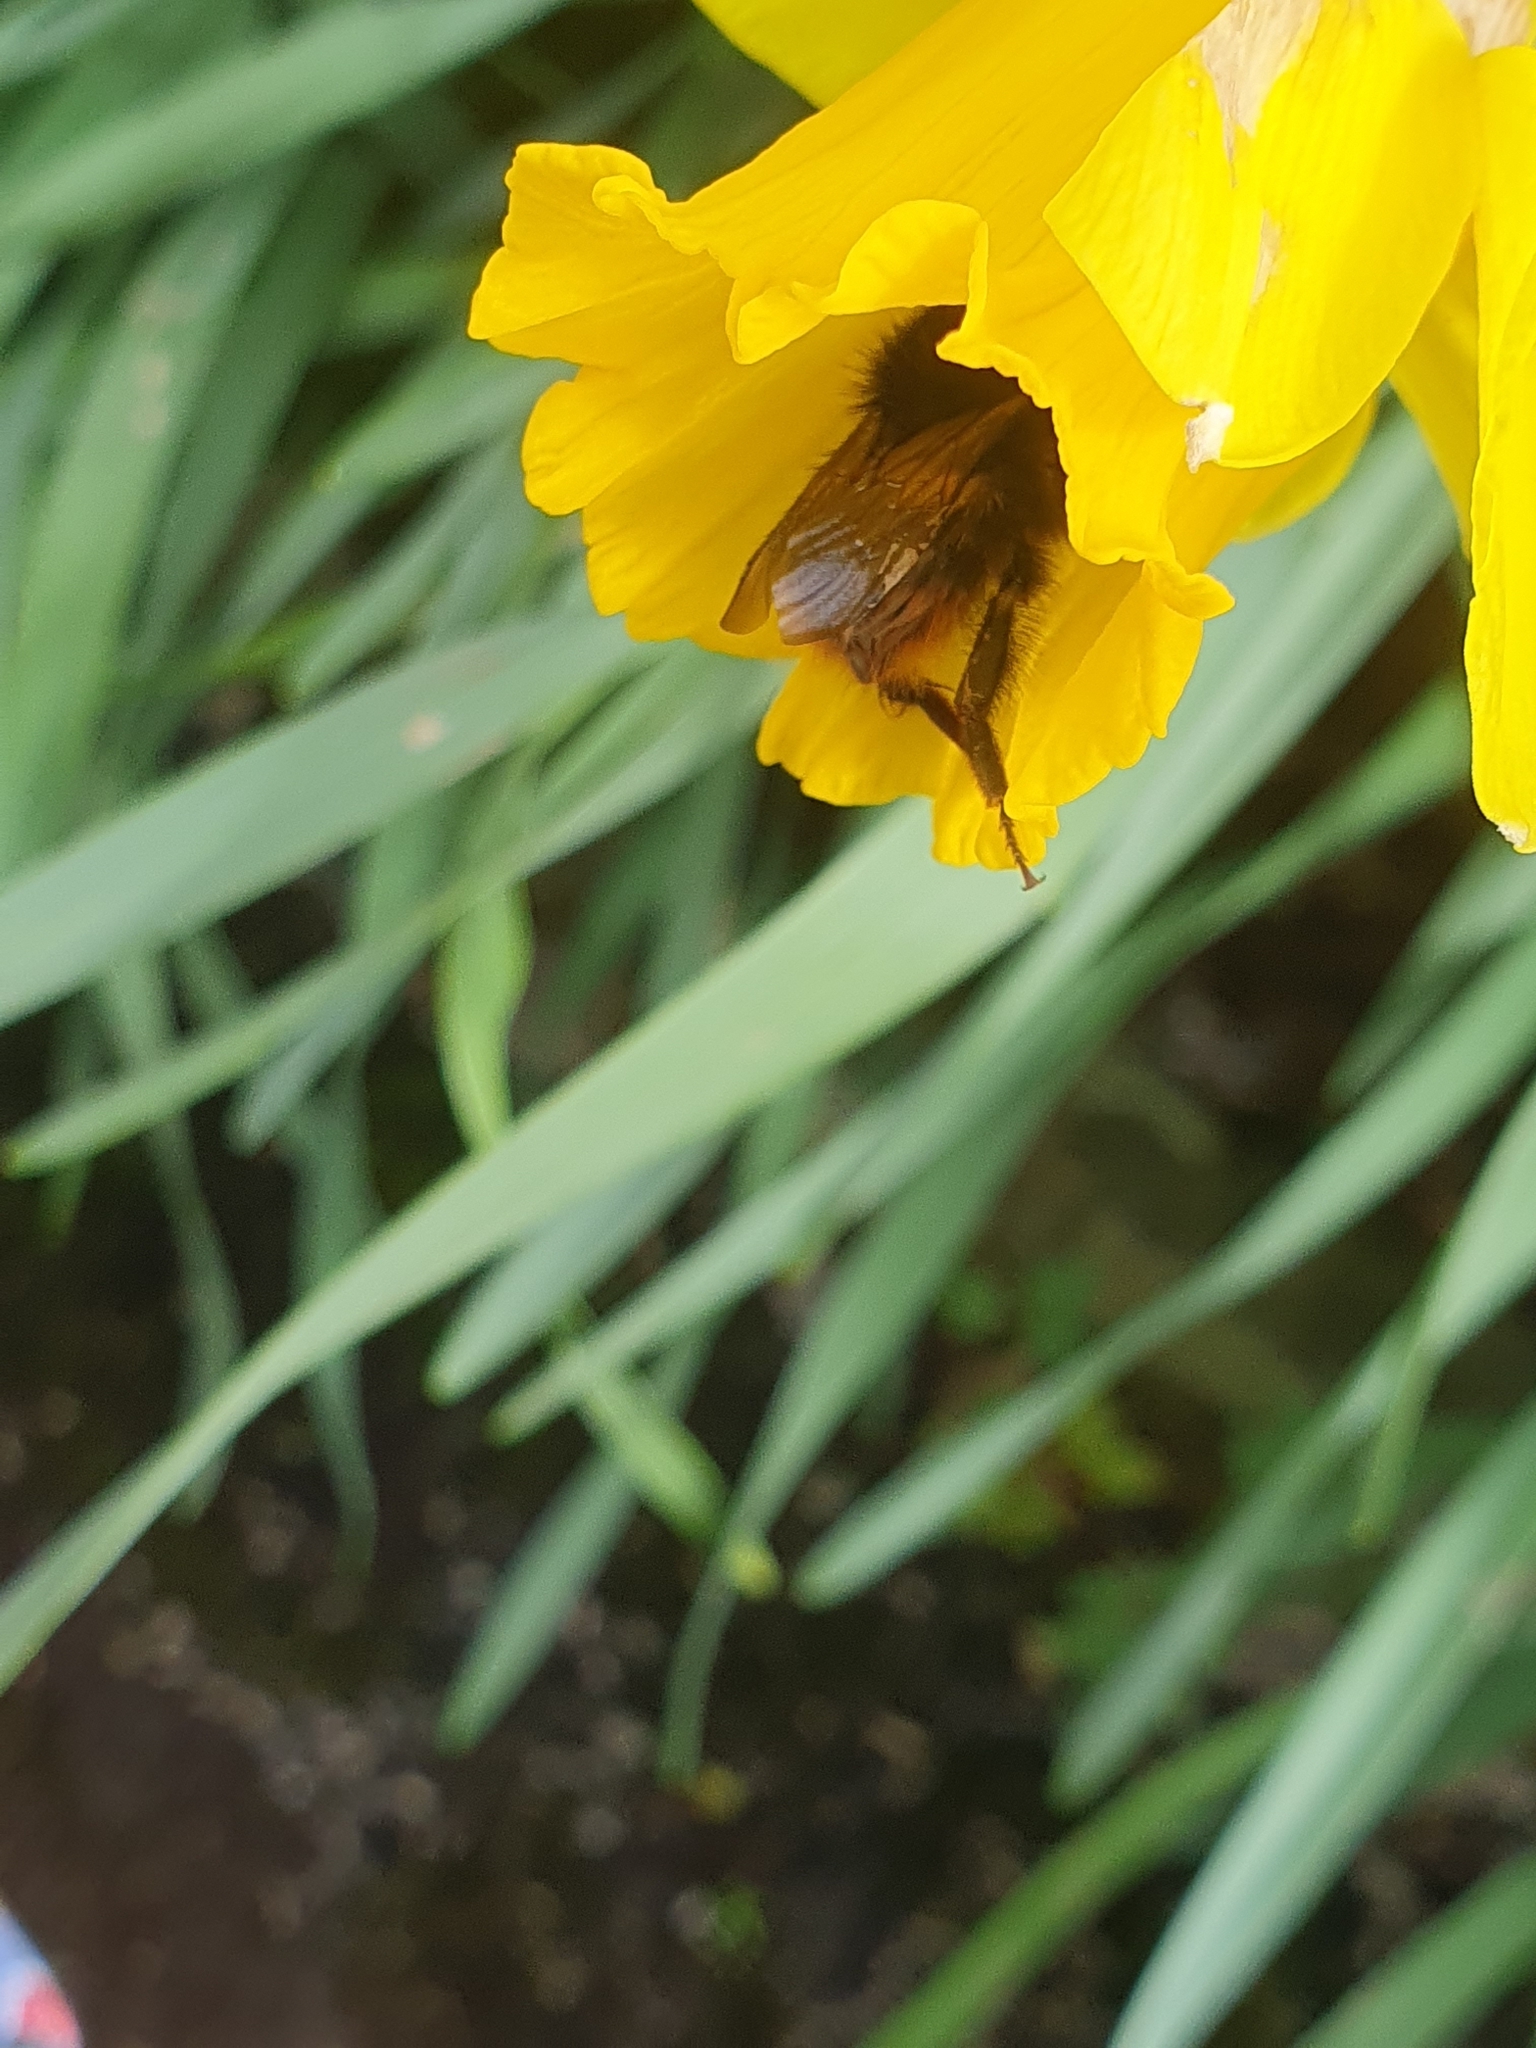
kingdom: Animalia
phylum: Arthropoda
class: Insecta
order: Hymenoptera
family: Apidae
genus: Bombus
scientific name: Bombus pratorum
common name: Early humble-bee
